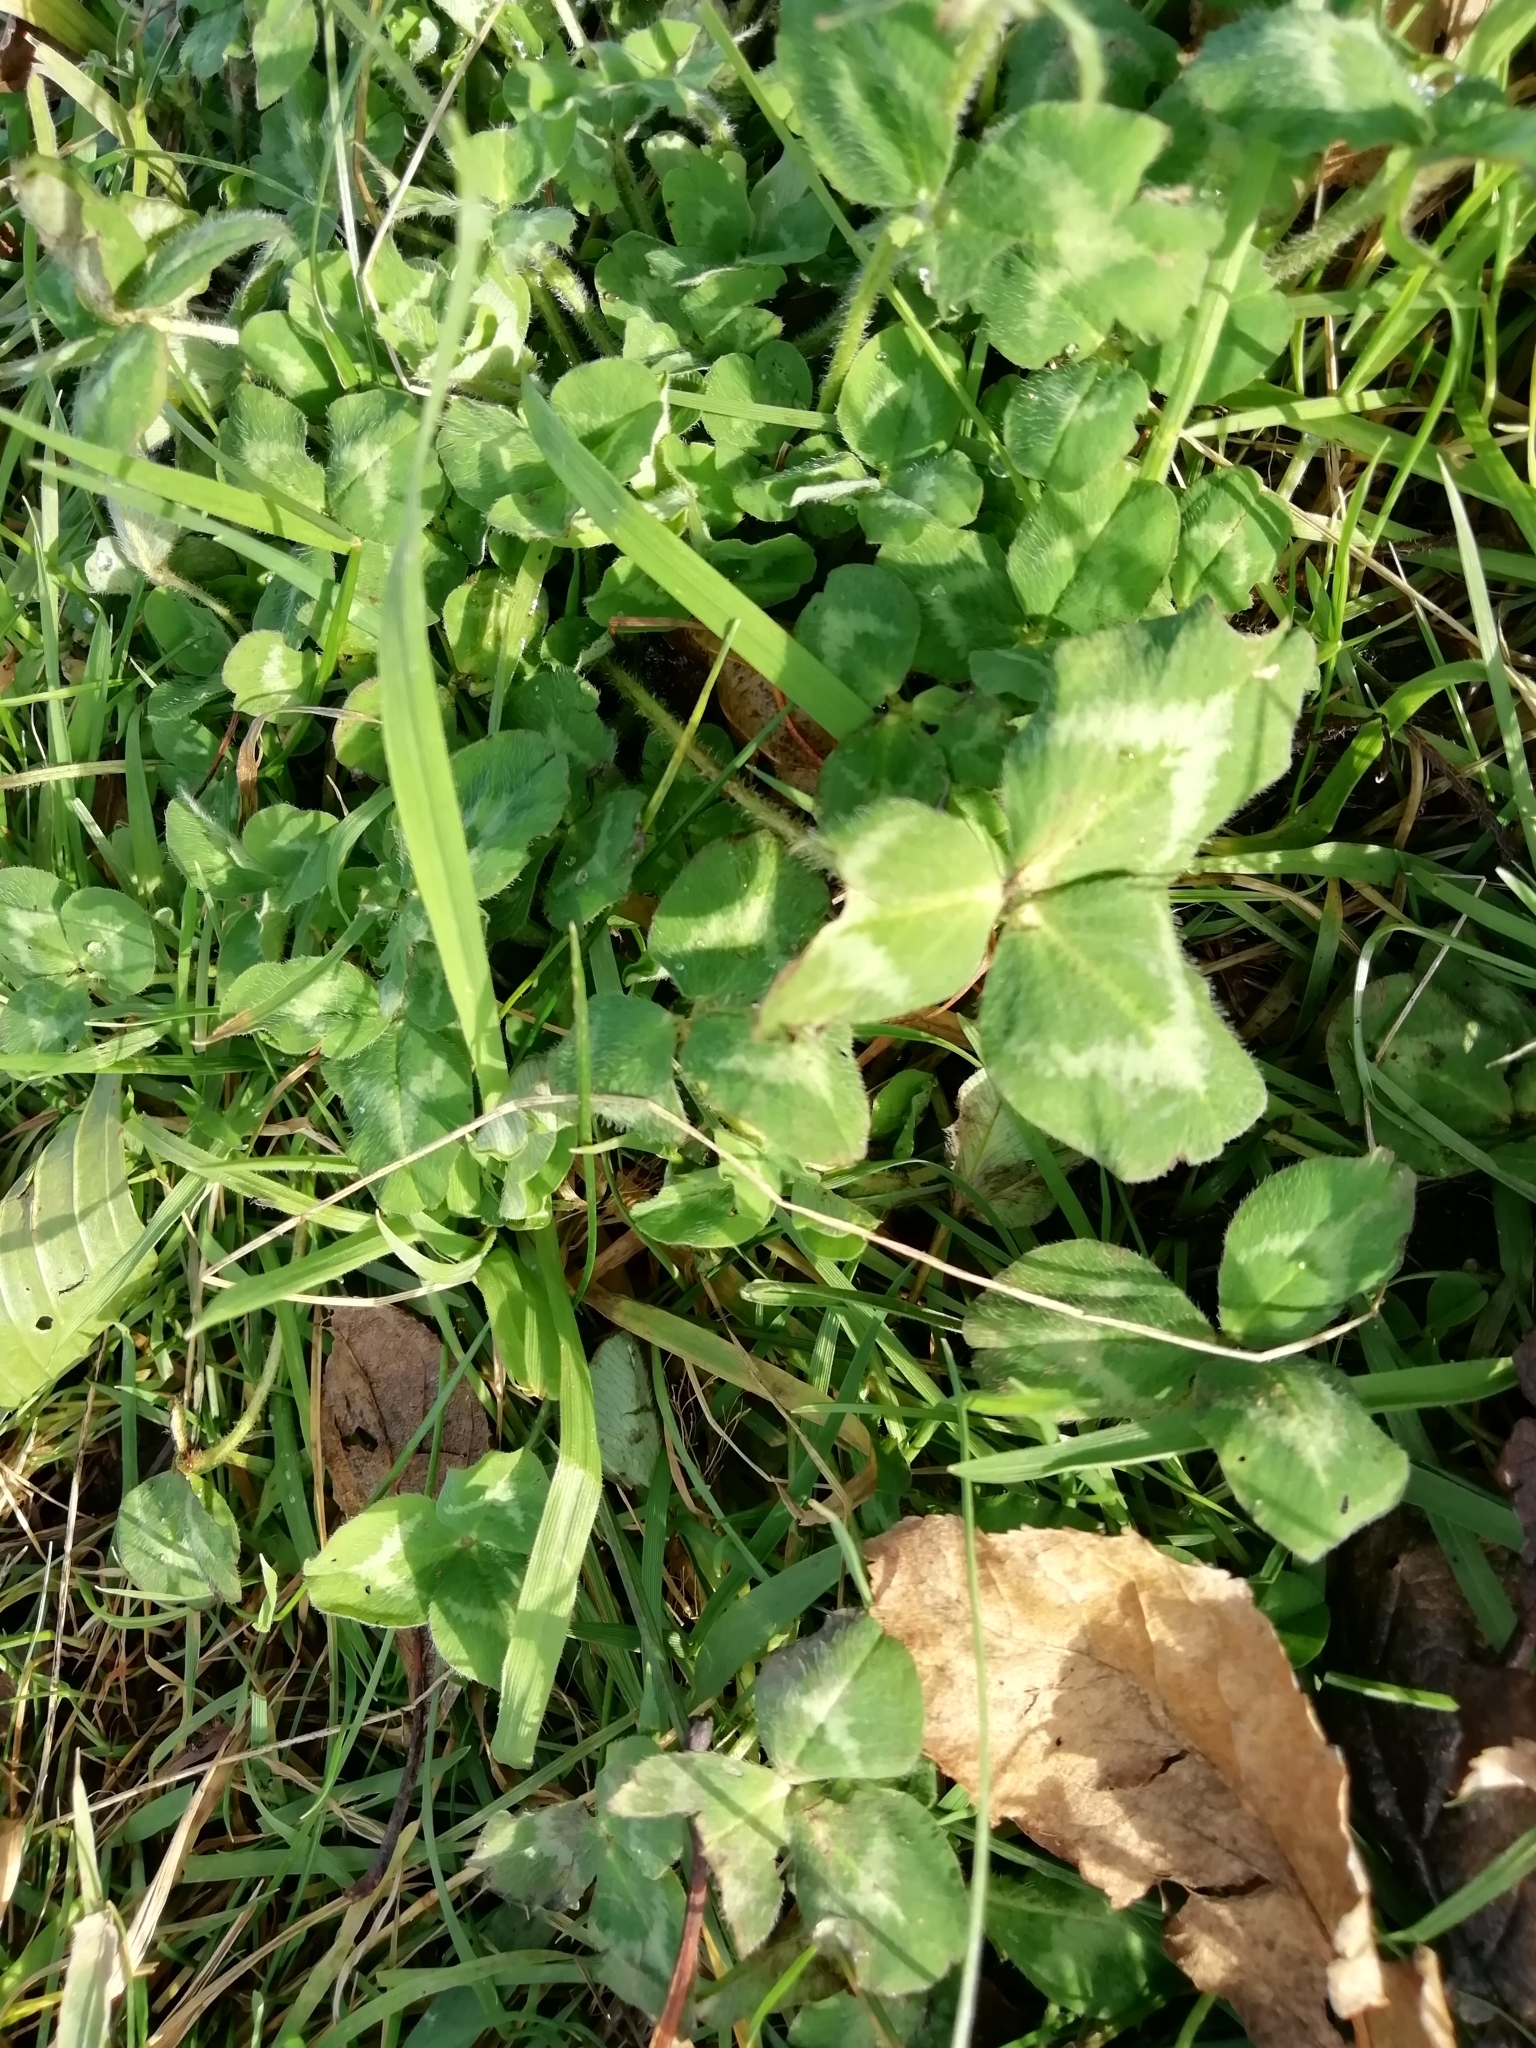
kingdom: Plantae
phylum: Tracheophyta
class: Magnoliopsida
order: Fabales
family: Fabaceae
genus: Trifolium
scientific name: Trifolium pratense
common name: Red clover
